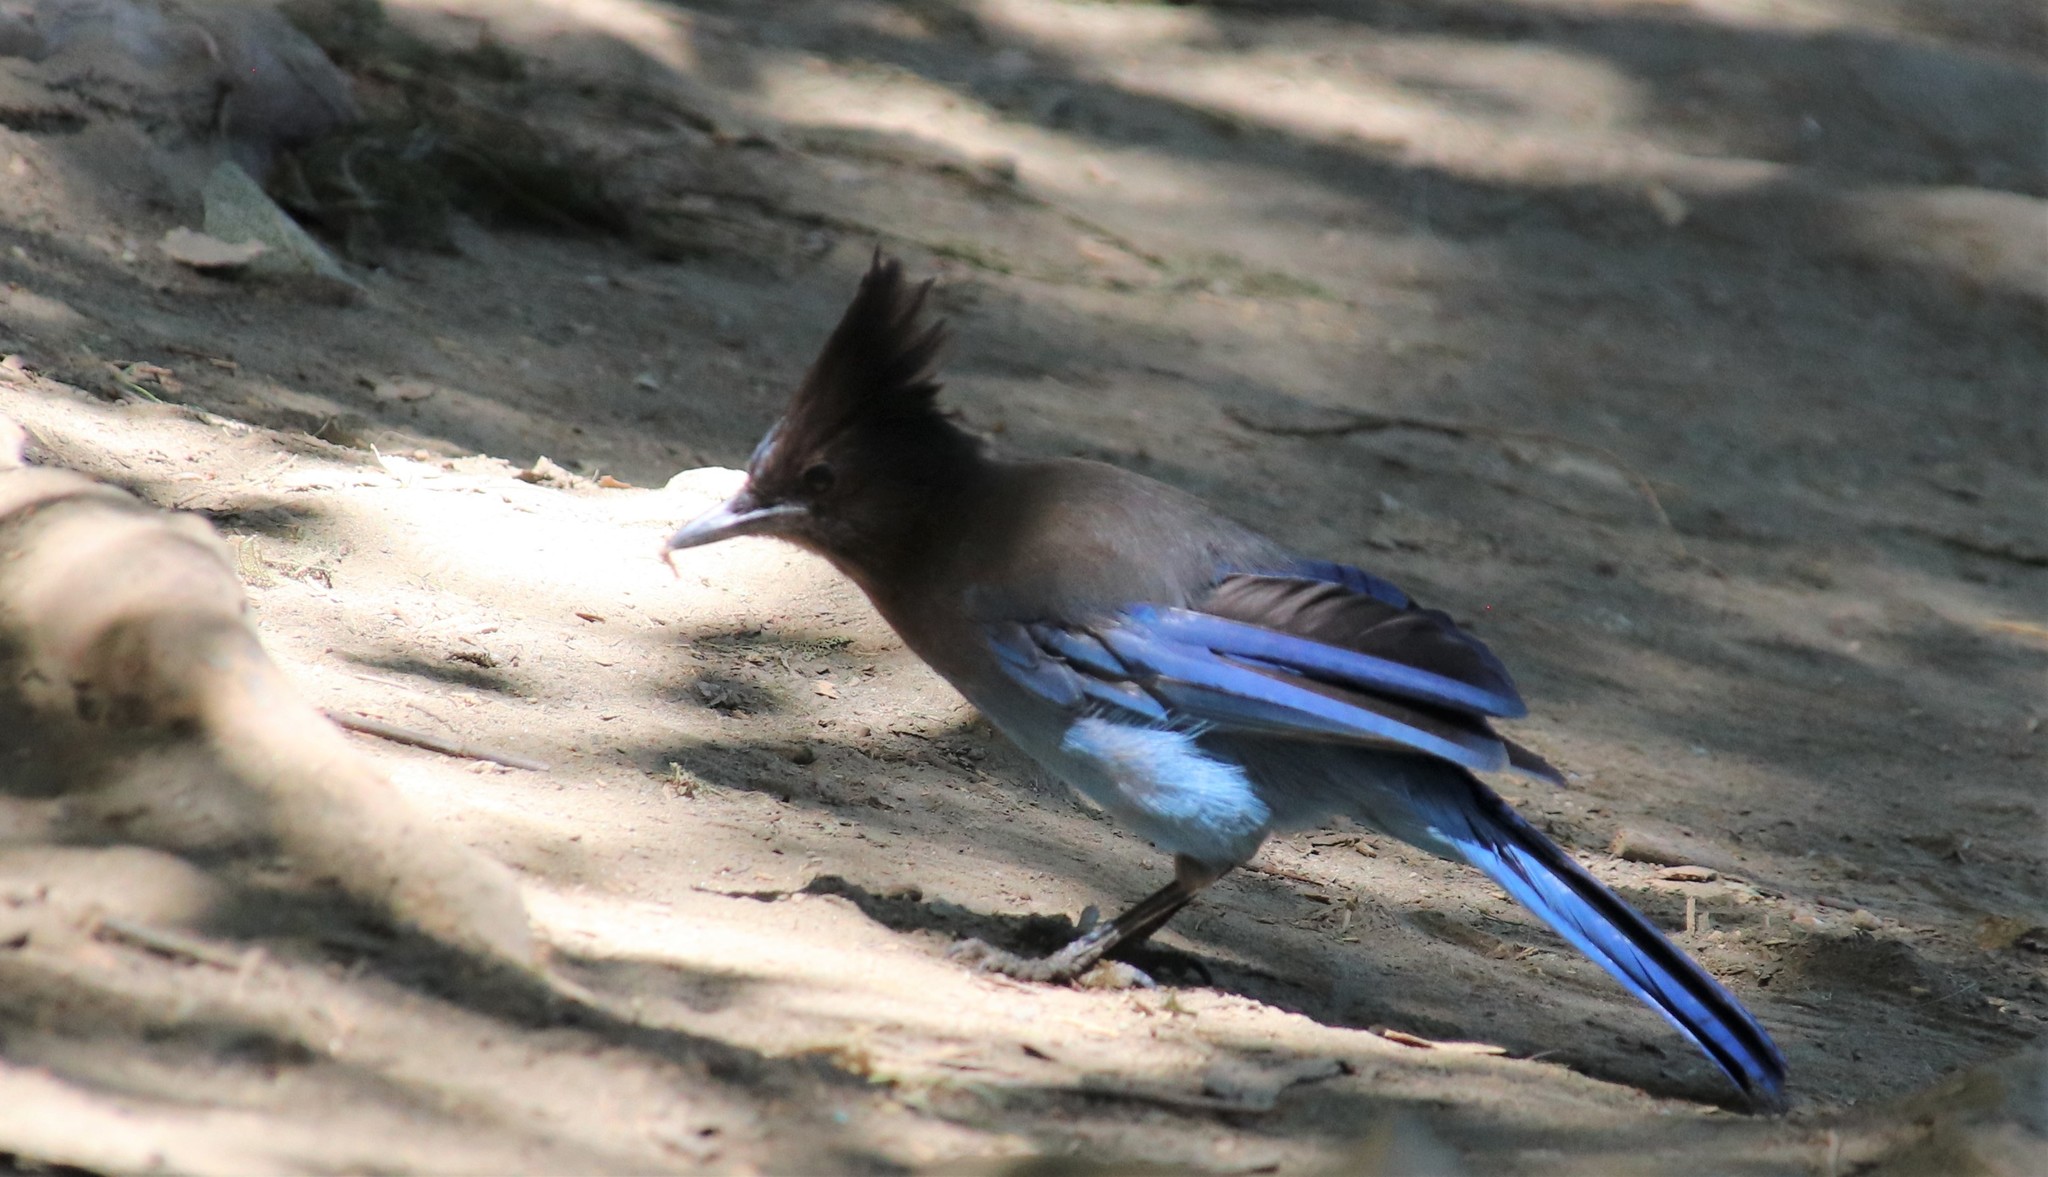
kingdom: Animalia
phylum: Chordata
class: Aves
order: Passeriformes
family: Corvidae
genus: Cyanocitta
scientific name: Cyanocitta stelleri
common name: Steller's jay
